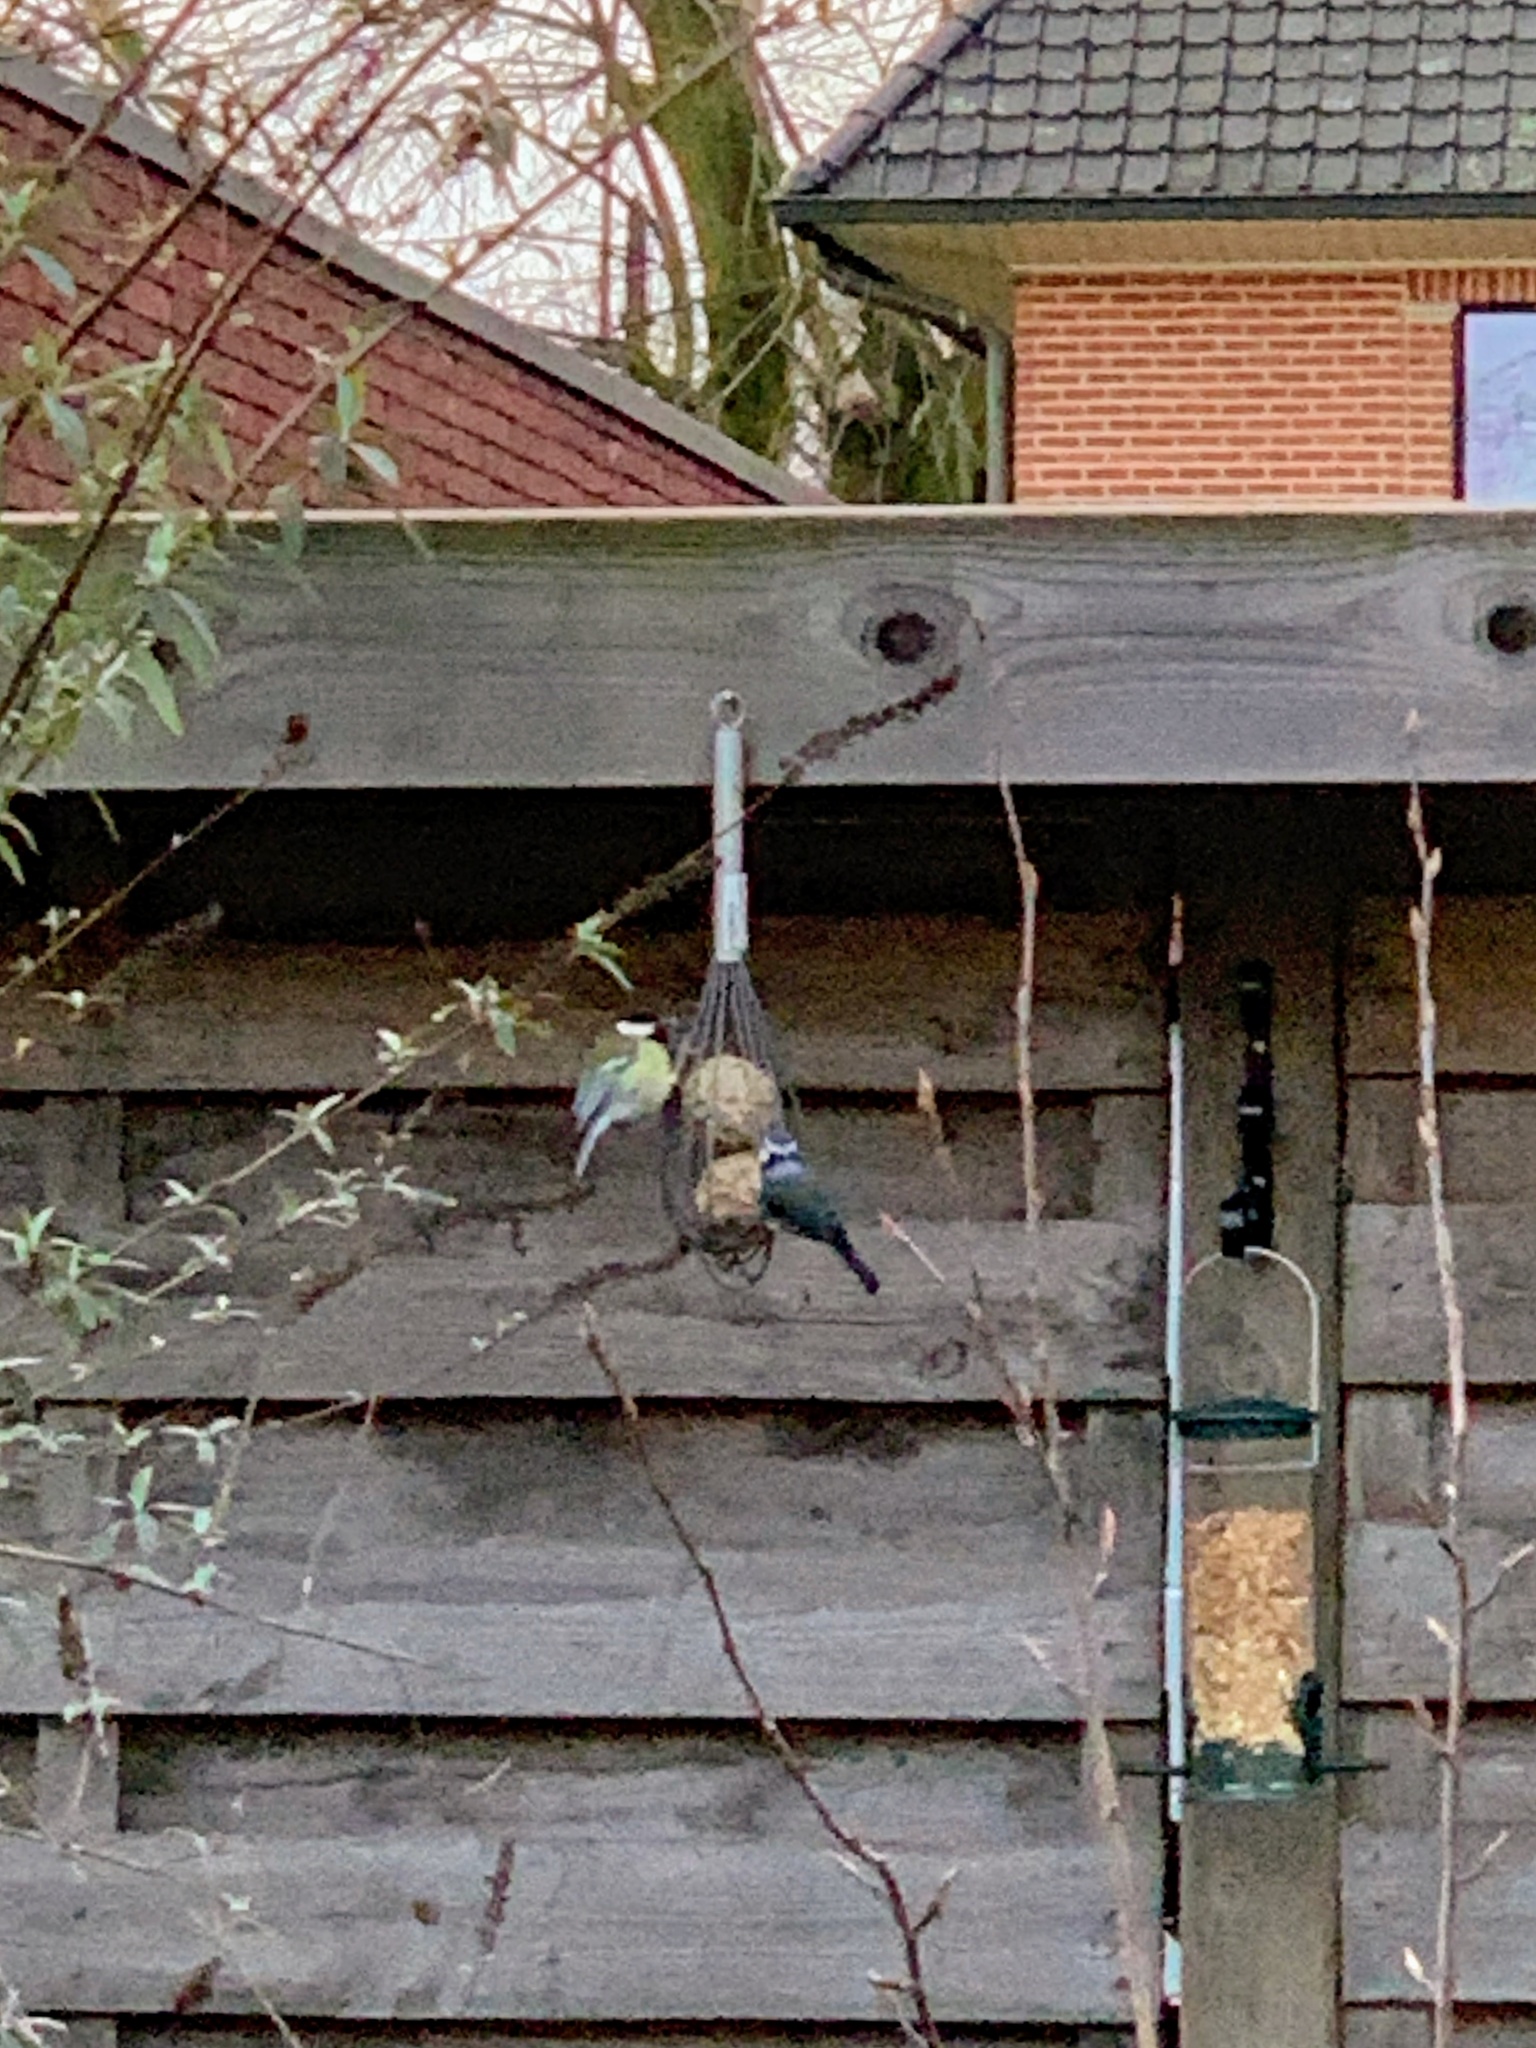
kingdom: Animalia
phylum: Chordata
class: Aves
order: Passeriformes
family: Paridae
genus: Parus
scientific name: Parus major
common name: Great tit
